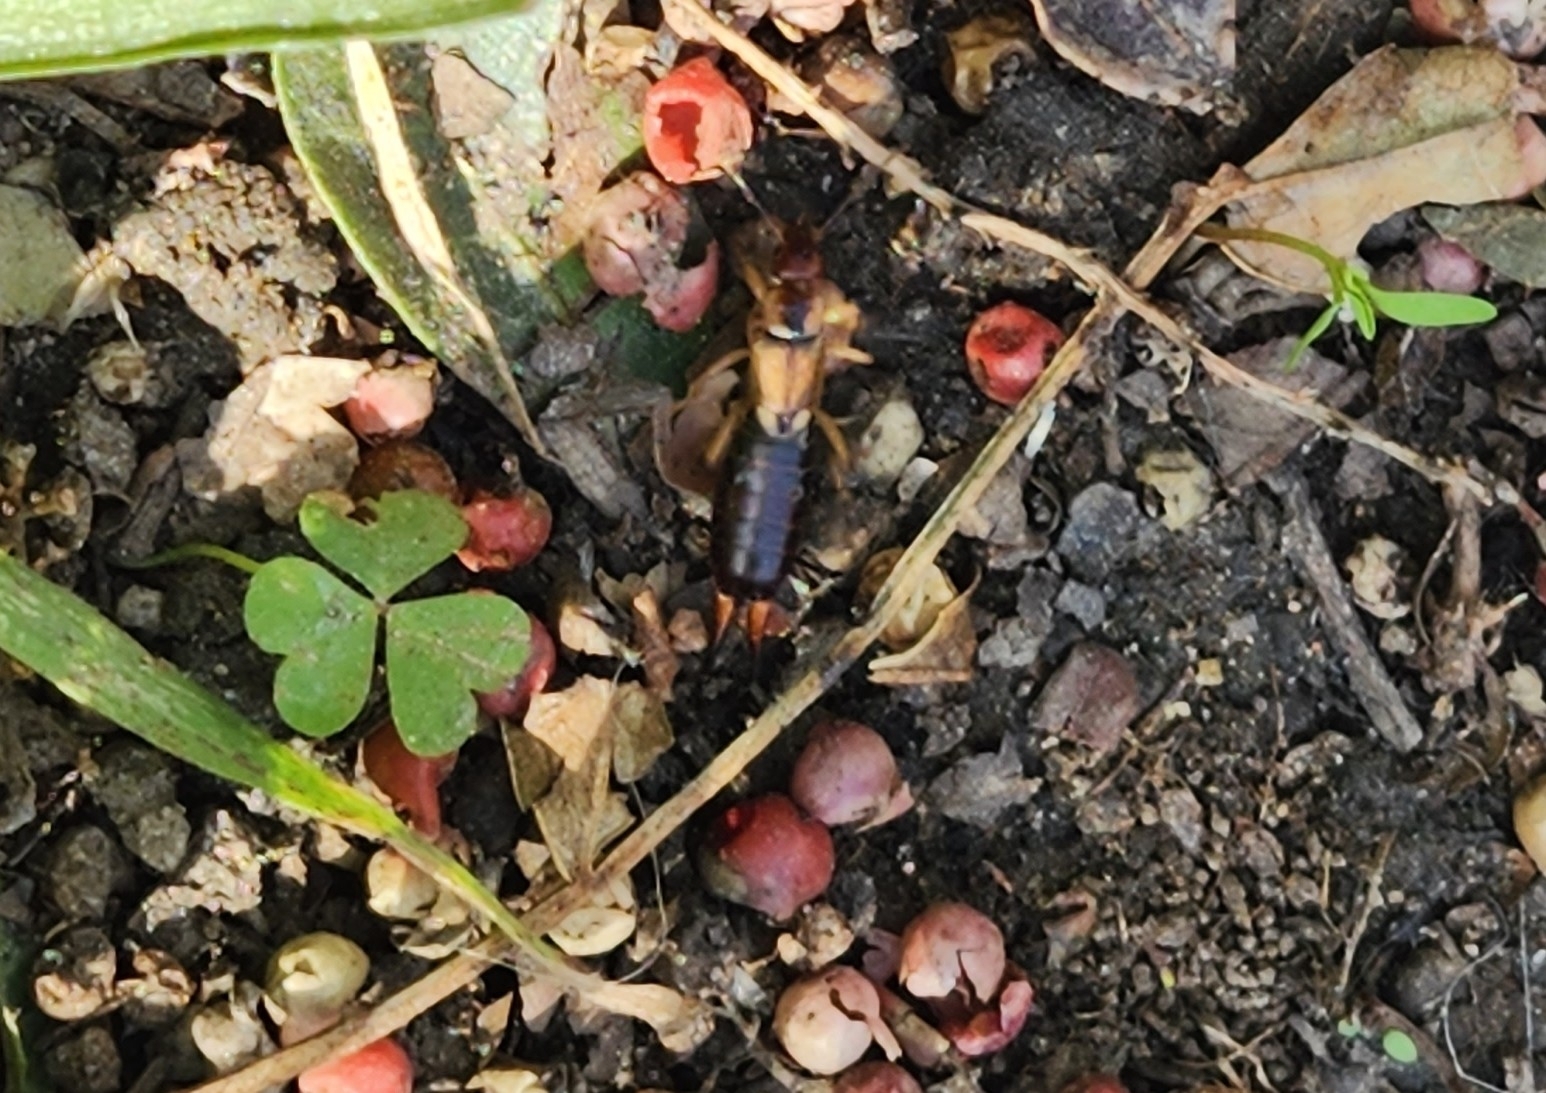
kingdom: Animalia
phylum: Arthropoda
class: Insecta
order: Dermaptera
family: Forficulidae
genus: Forficula
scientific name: Forficula
